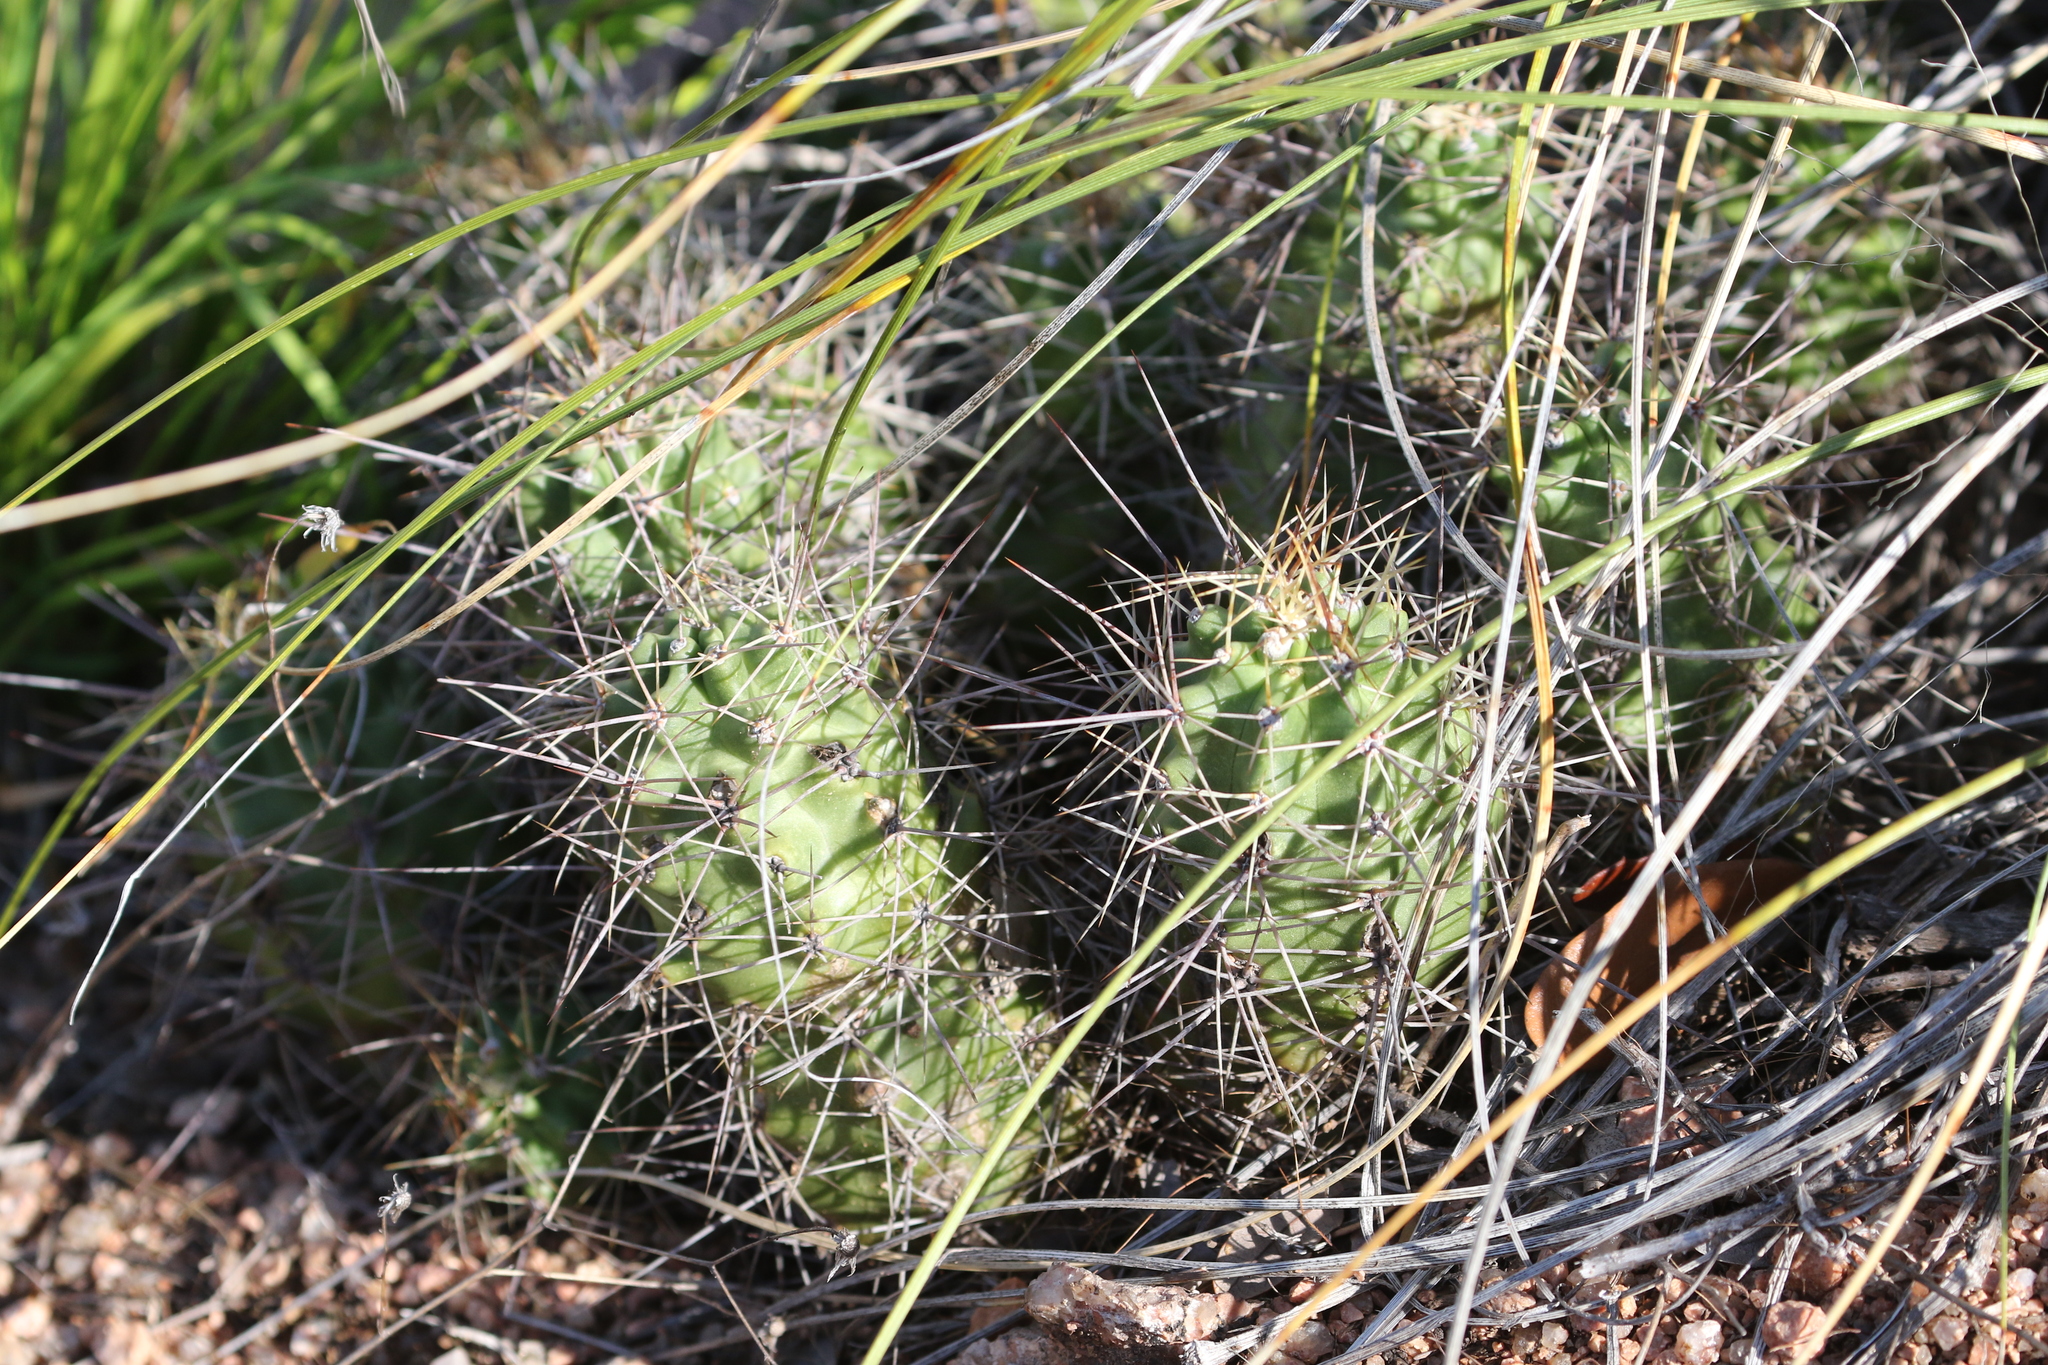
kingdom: Plantae
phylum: Tracheophyta
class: Magnoliopsida
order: Caryophyllales
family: Cactaceae
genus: Echinocereus
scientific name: Echinocereus coccineus
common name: Scarlet hedgehog cactus
